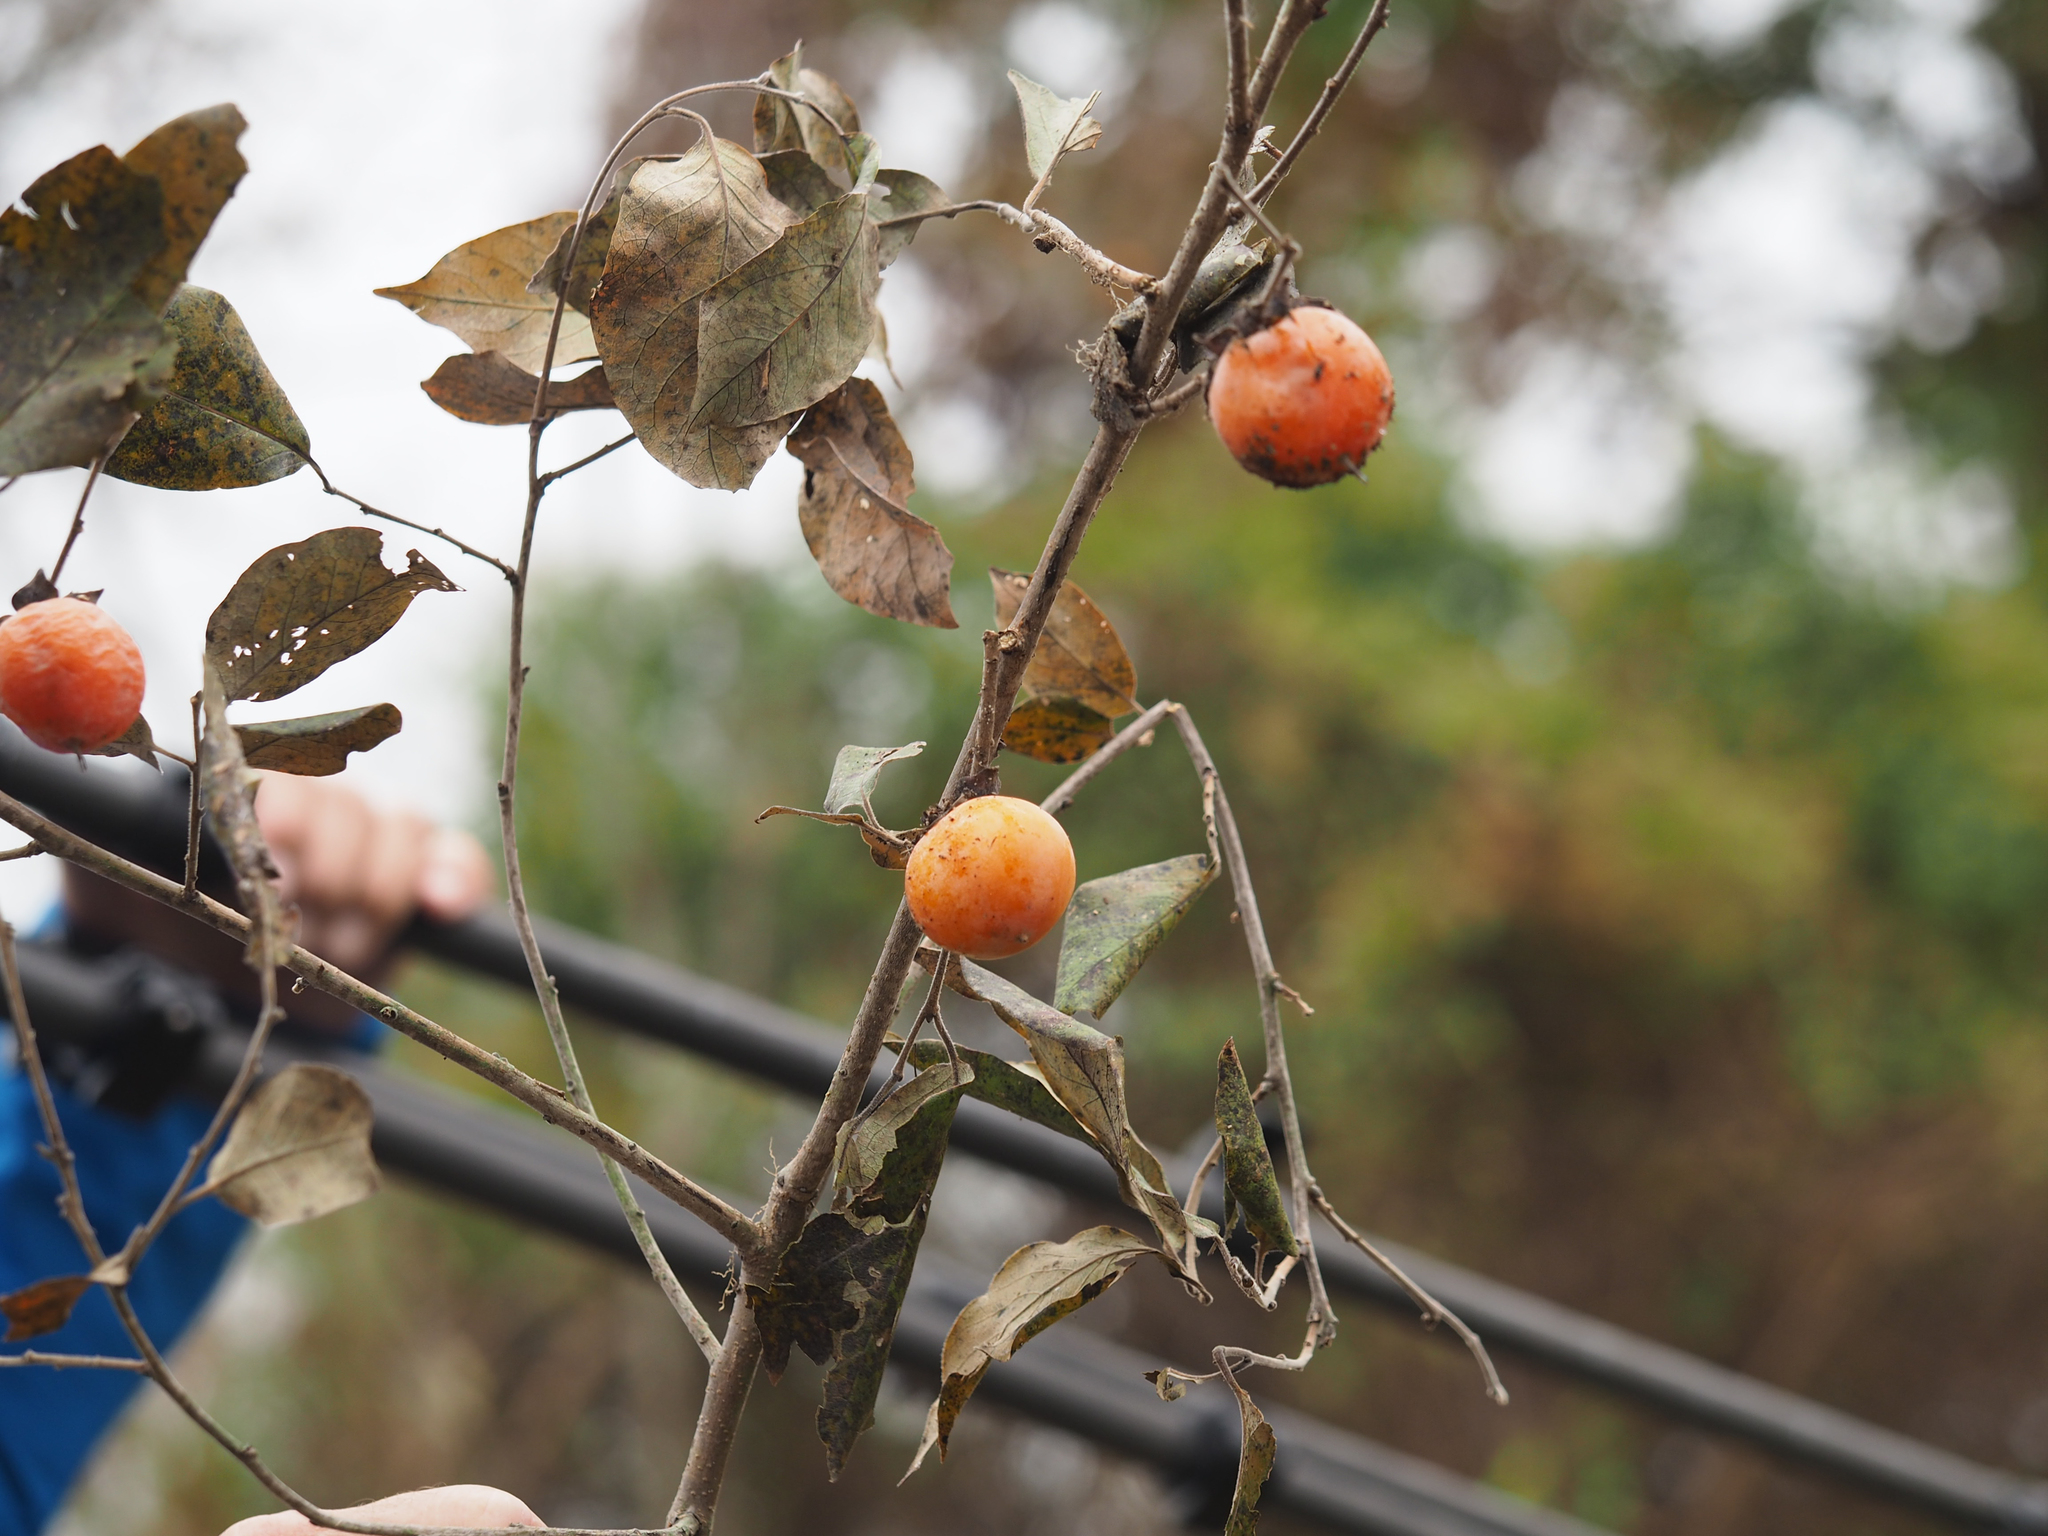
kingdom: Plantae
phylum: Tracheophyta
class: Magnoliopsida
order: Ericales
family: Ebenaceae
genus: Diospyros
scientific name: Diospyros virginiana
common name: Persimmon
